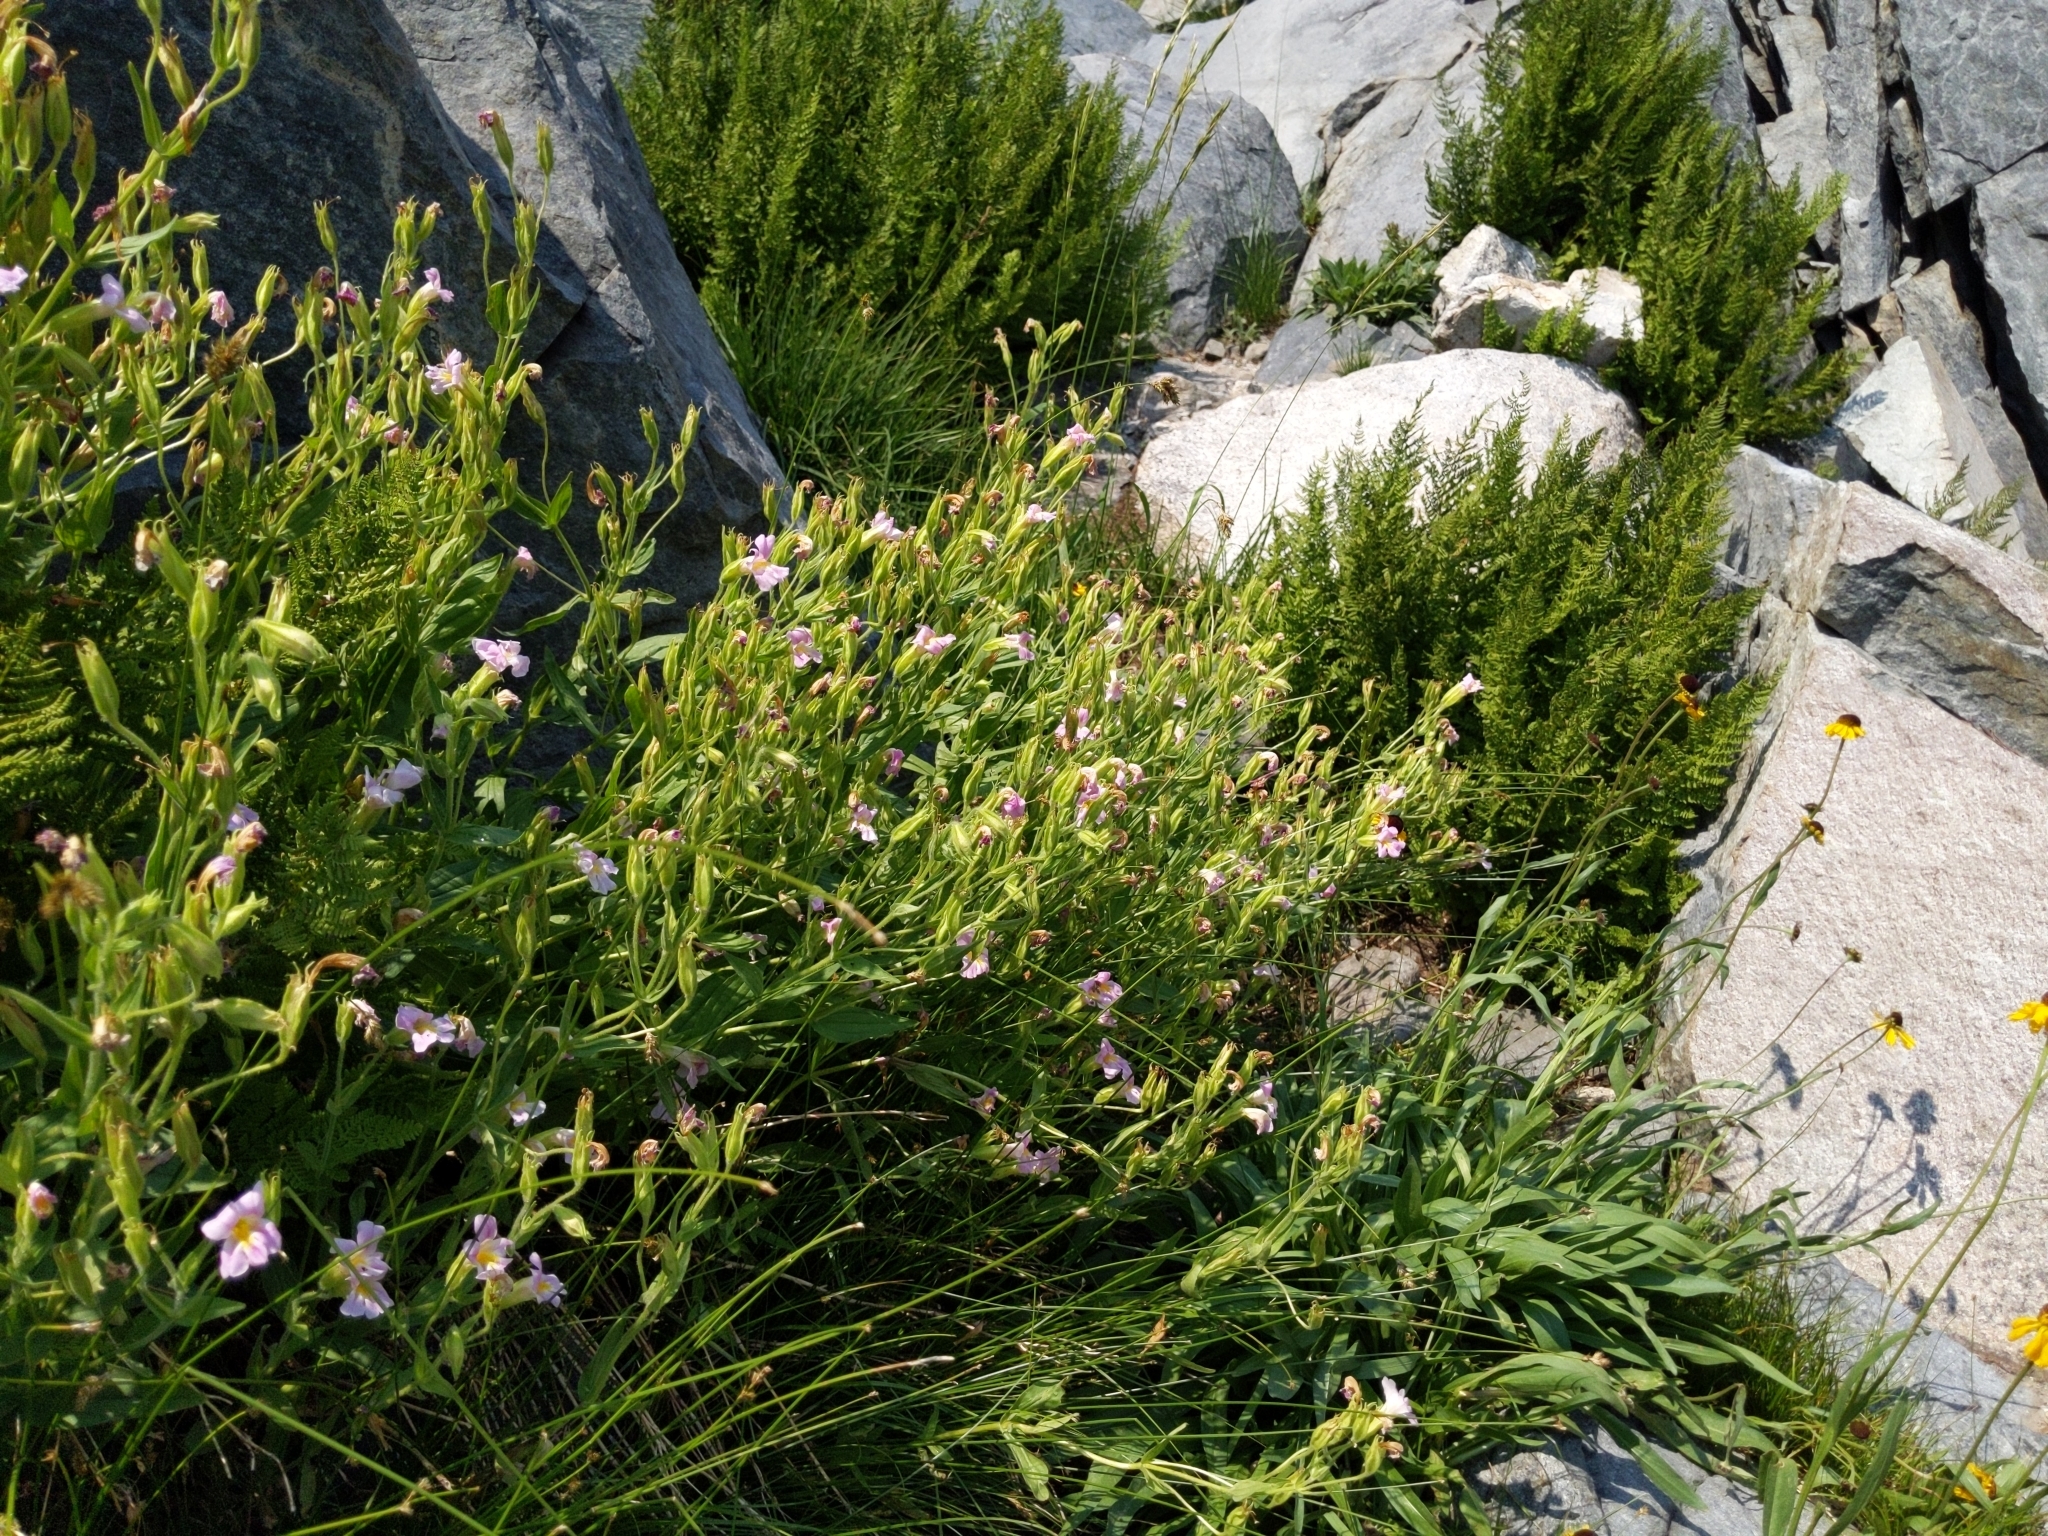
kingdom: Plantae
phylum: Tracheophyta
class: Magnoliopsida
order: Lamiales
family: Phrymaceae
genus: Erythranthe
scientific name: Erythranthe erubescens
